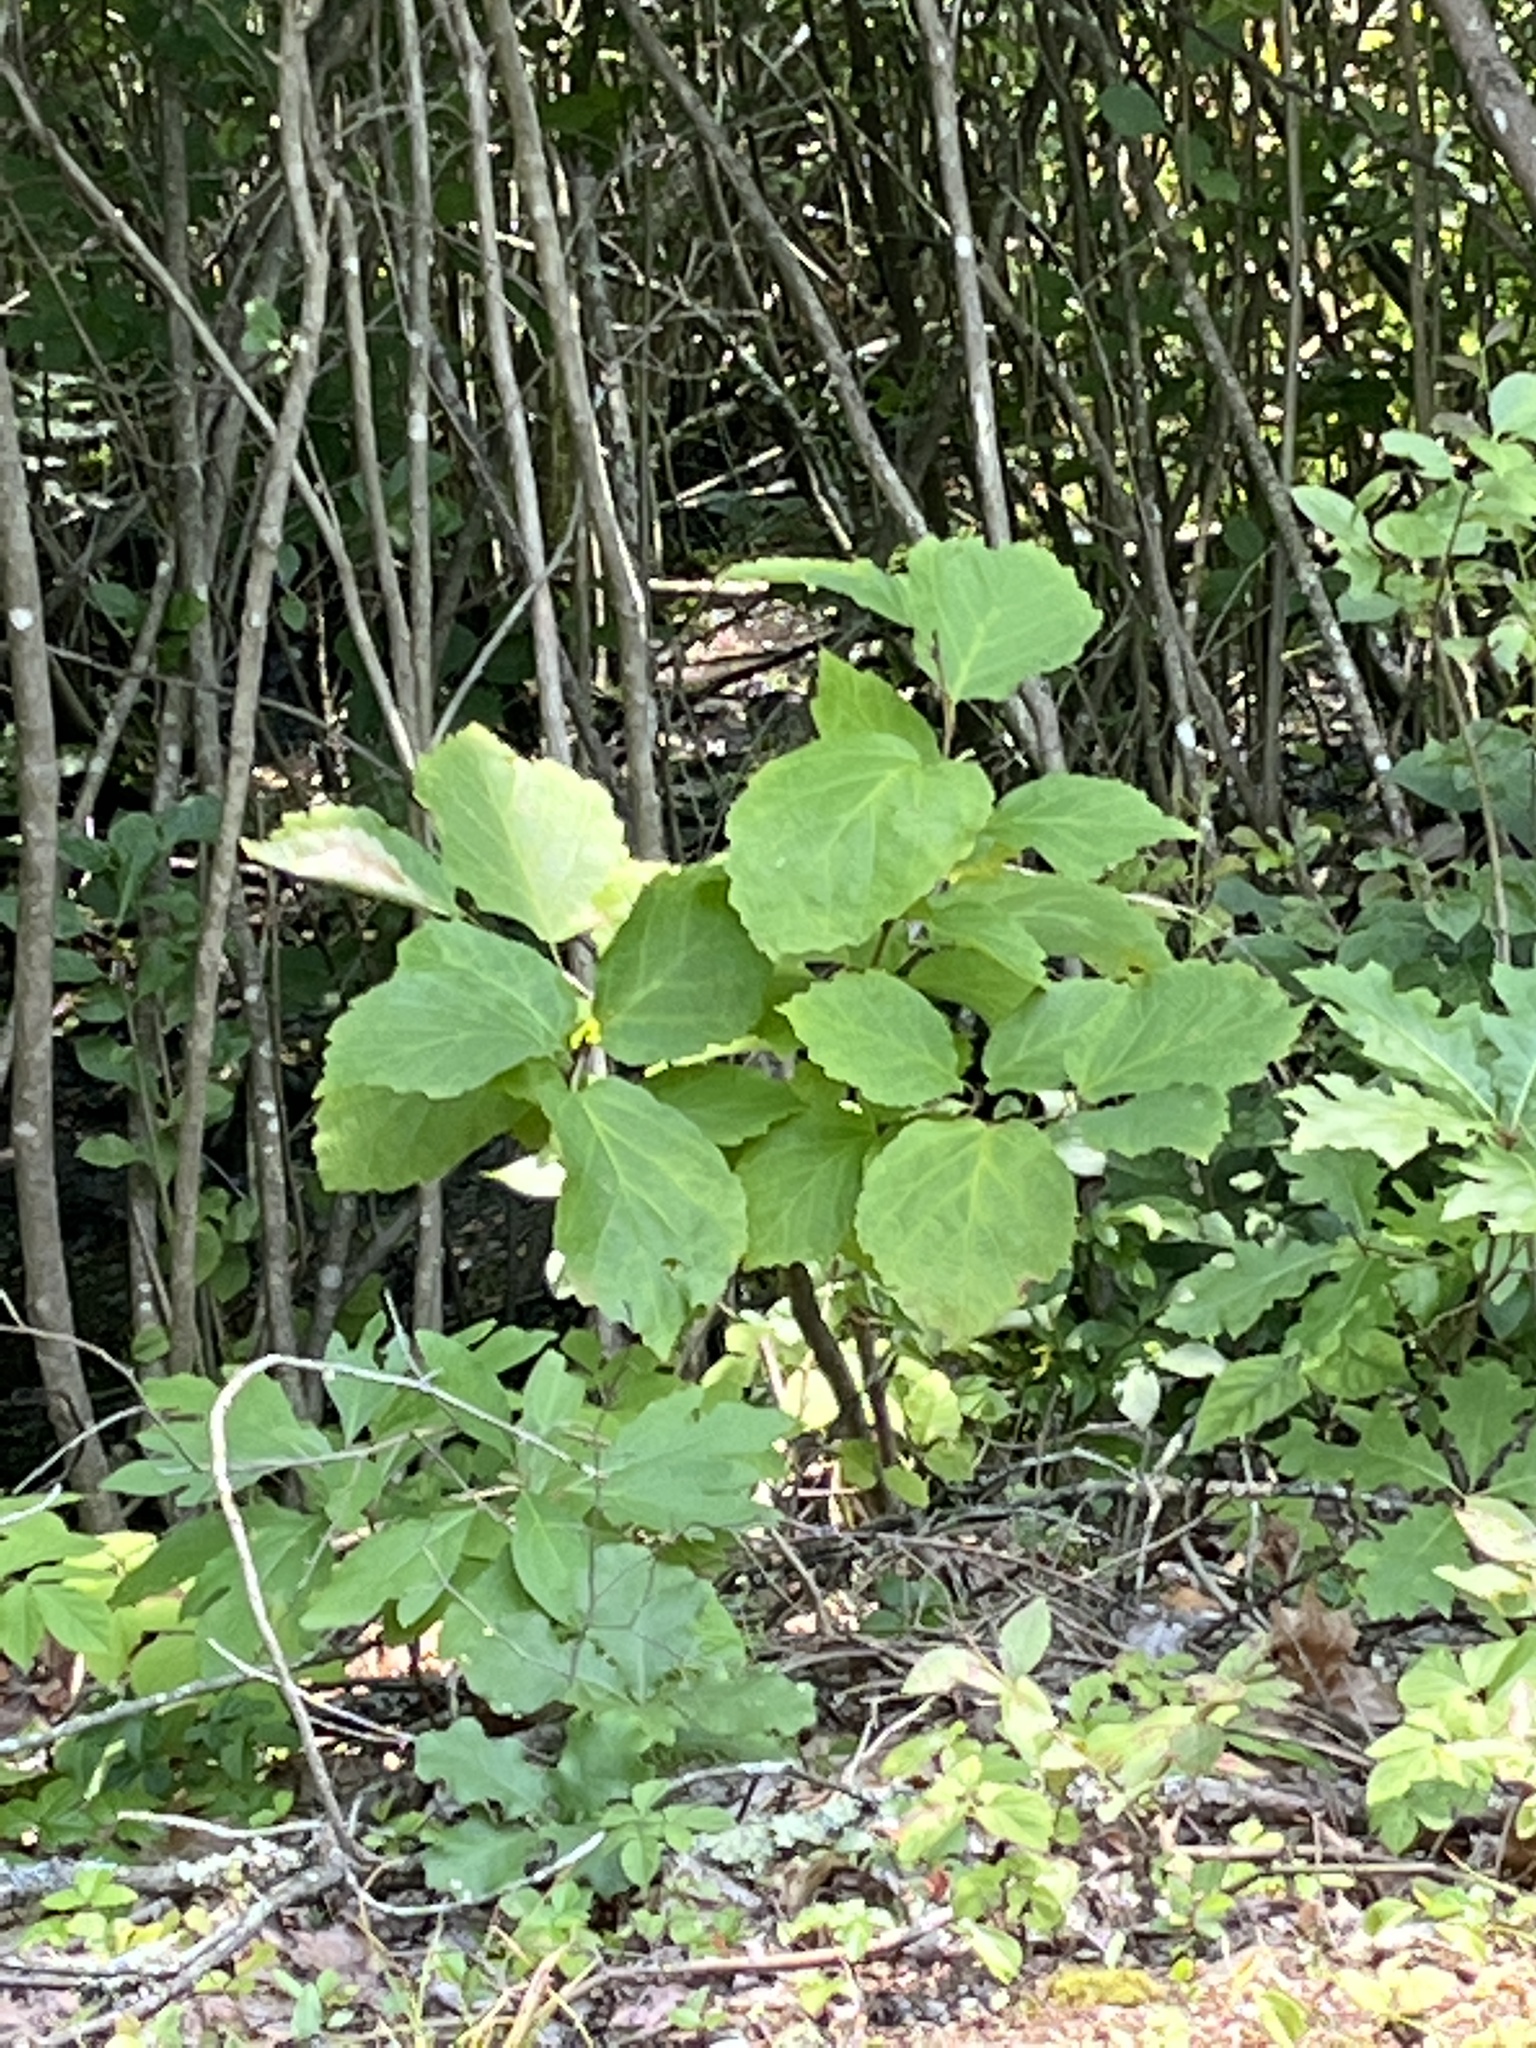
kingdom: Plantae
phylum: Tracheophyta
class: Magnoliopsida
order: Saxifragales
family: Hamamelidaceae
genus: Hamamelis
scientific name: Hamamelis virginiana
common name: Witch-hazel
